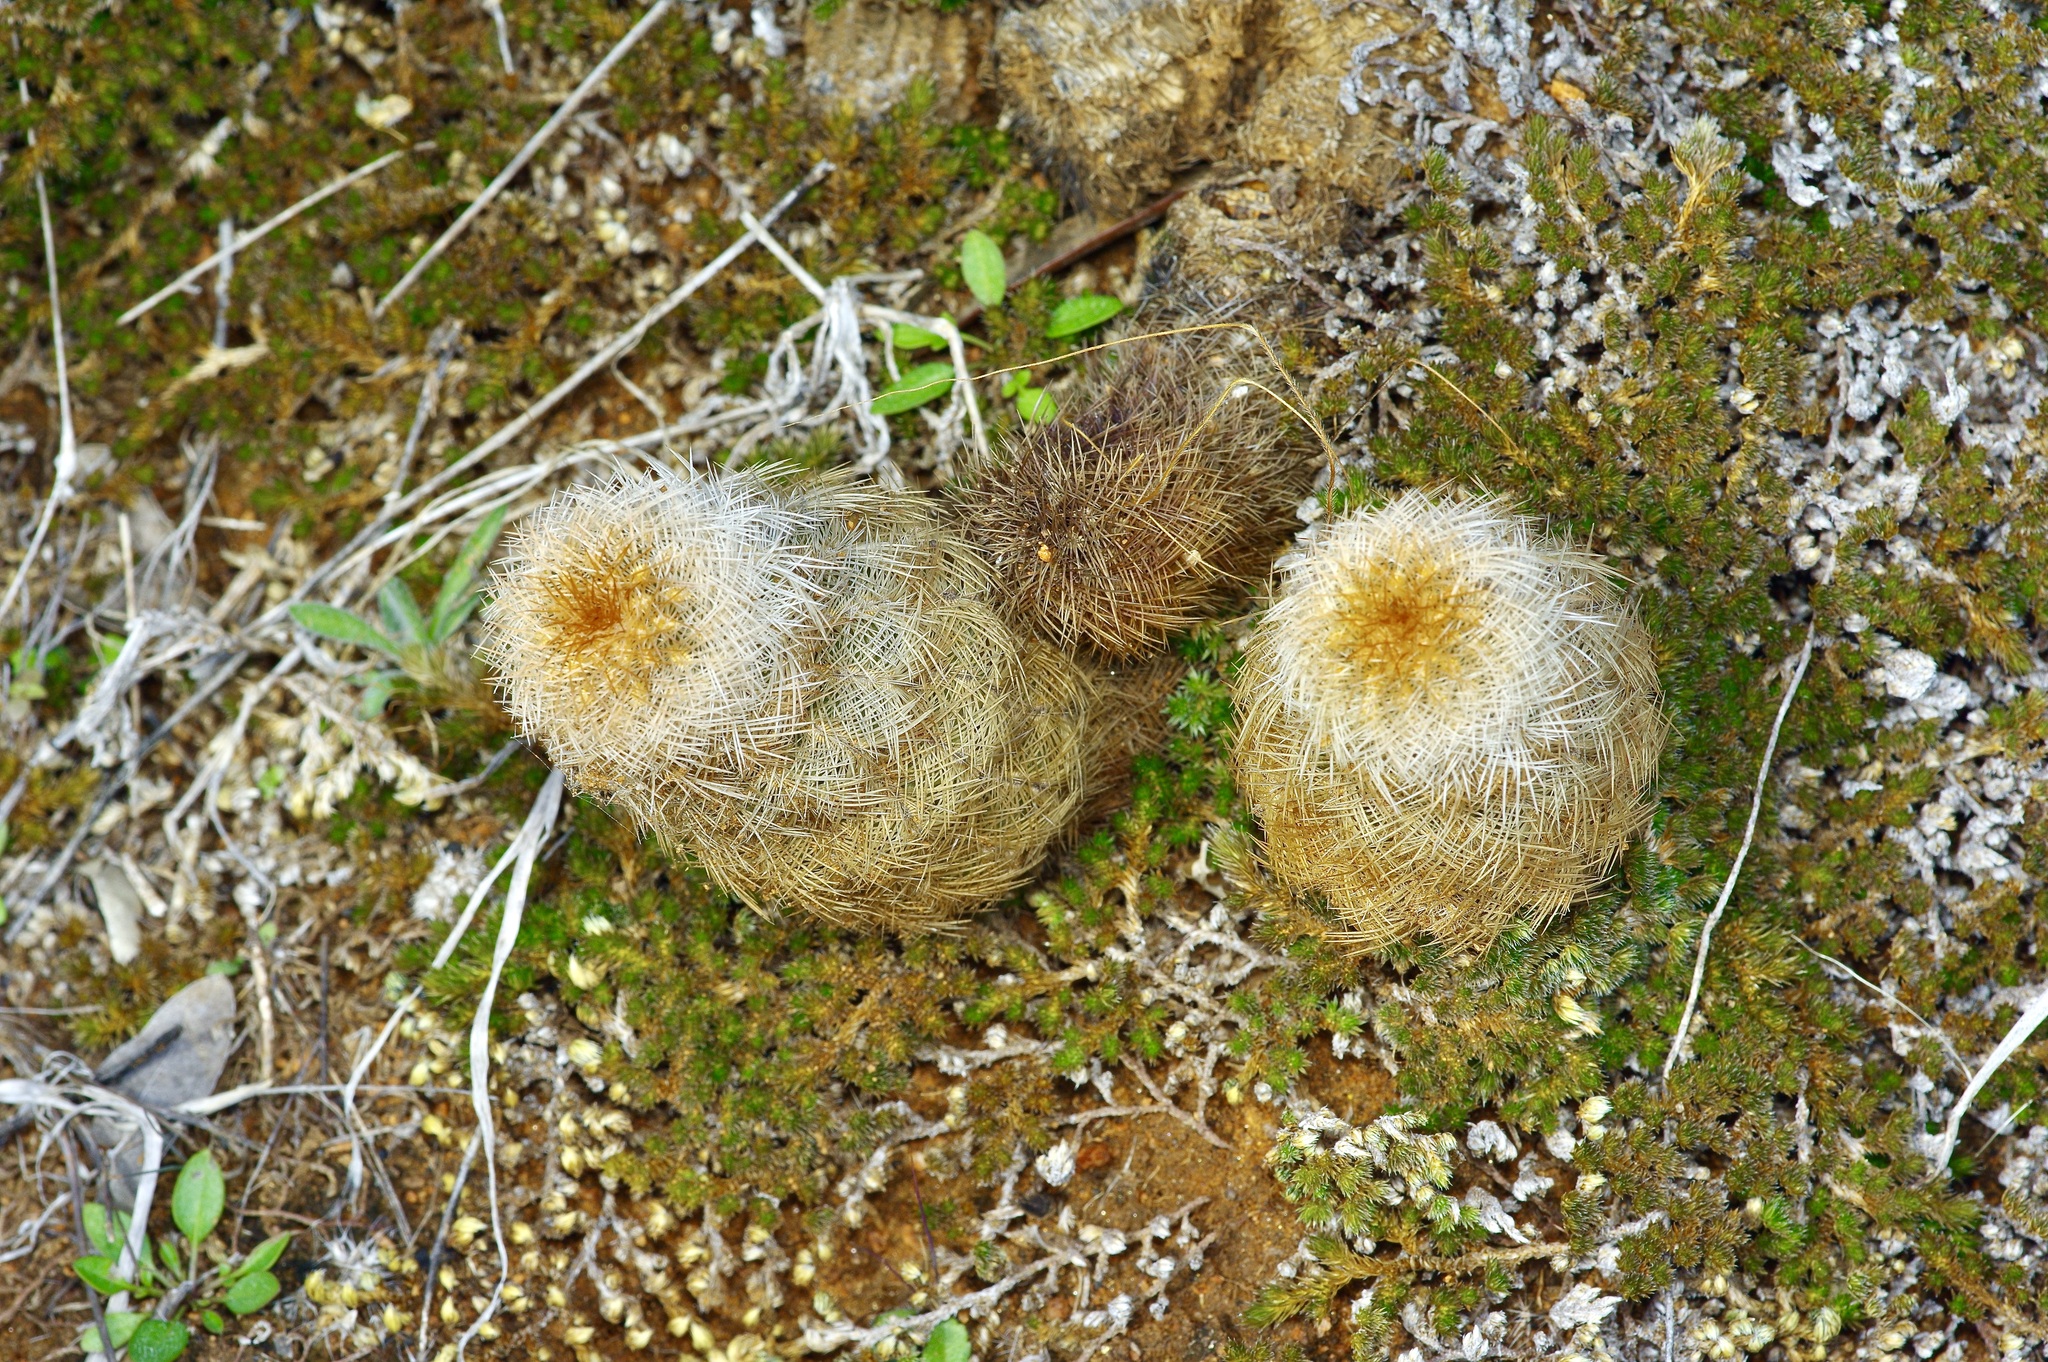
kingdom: Plantae
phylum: Tracheophyta
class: Magnoliopsida
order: Caryophyllales
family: Cactaceae
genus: Echinocereus
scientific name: Echinocereus reichenbachii
